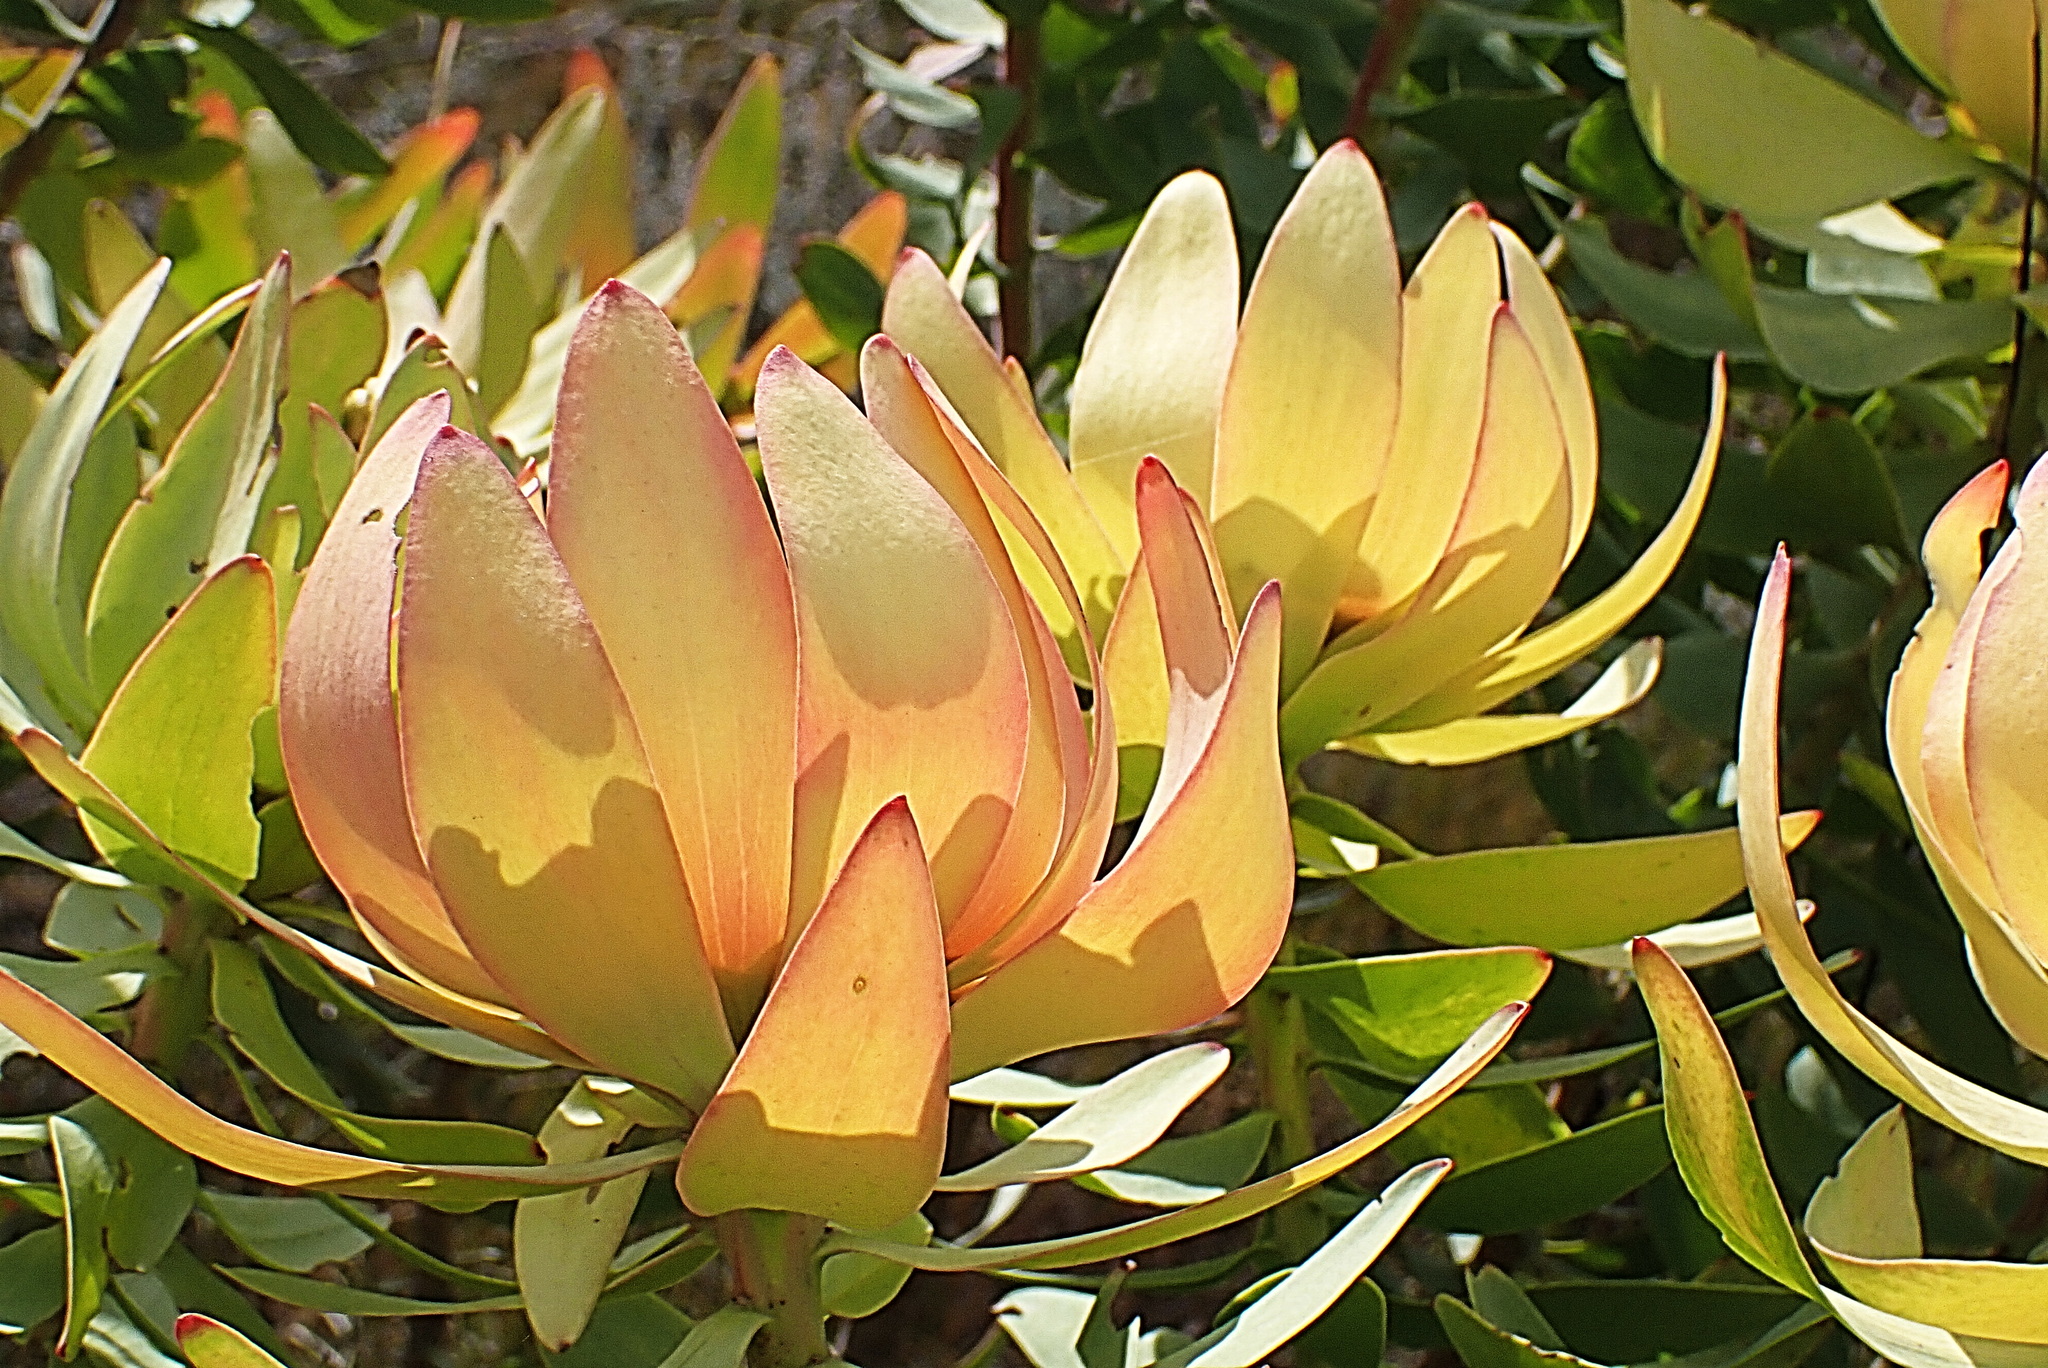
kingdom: Plantae
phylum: Tracheophyta
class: Magnoliopsida
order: Proteales
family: Proteaceae
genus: Leucadendron
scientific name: Leucadendron tinctum
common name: Spicy conebush
